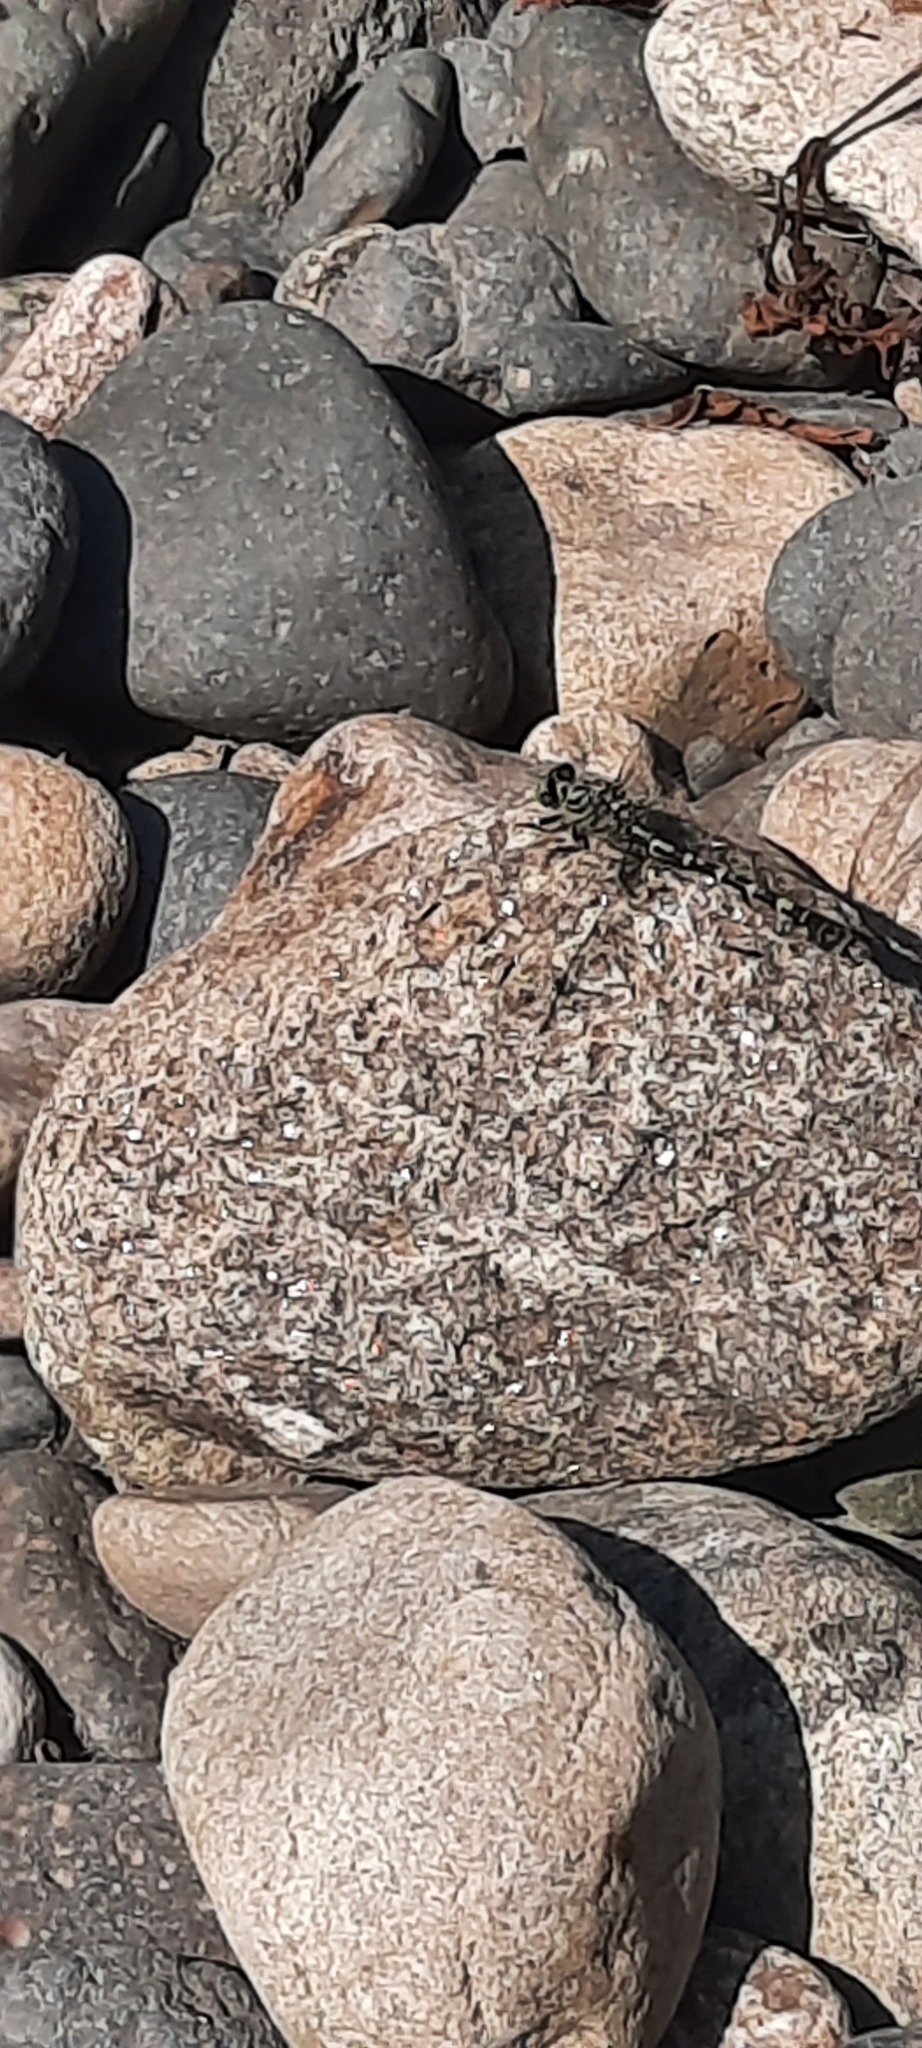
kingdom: Animalia
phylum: Arthropoda
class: Insecta
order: Odonata
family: Gomphidae
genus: Onychogomphus
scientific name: Onychogomphus forcipatus
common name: Small pincertail
